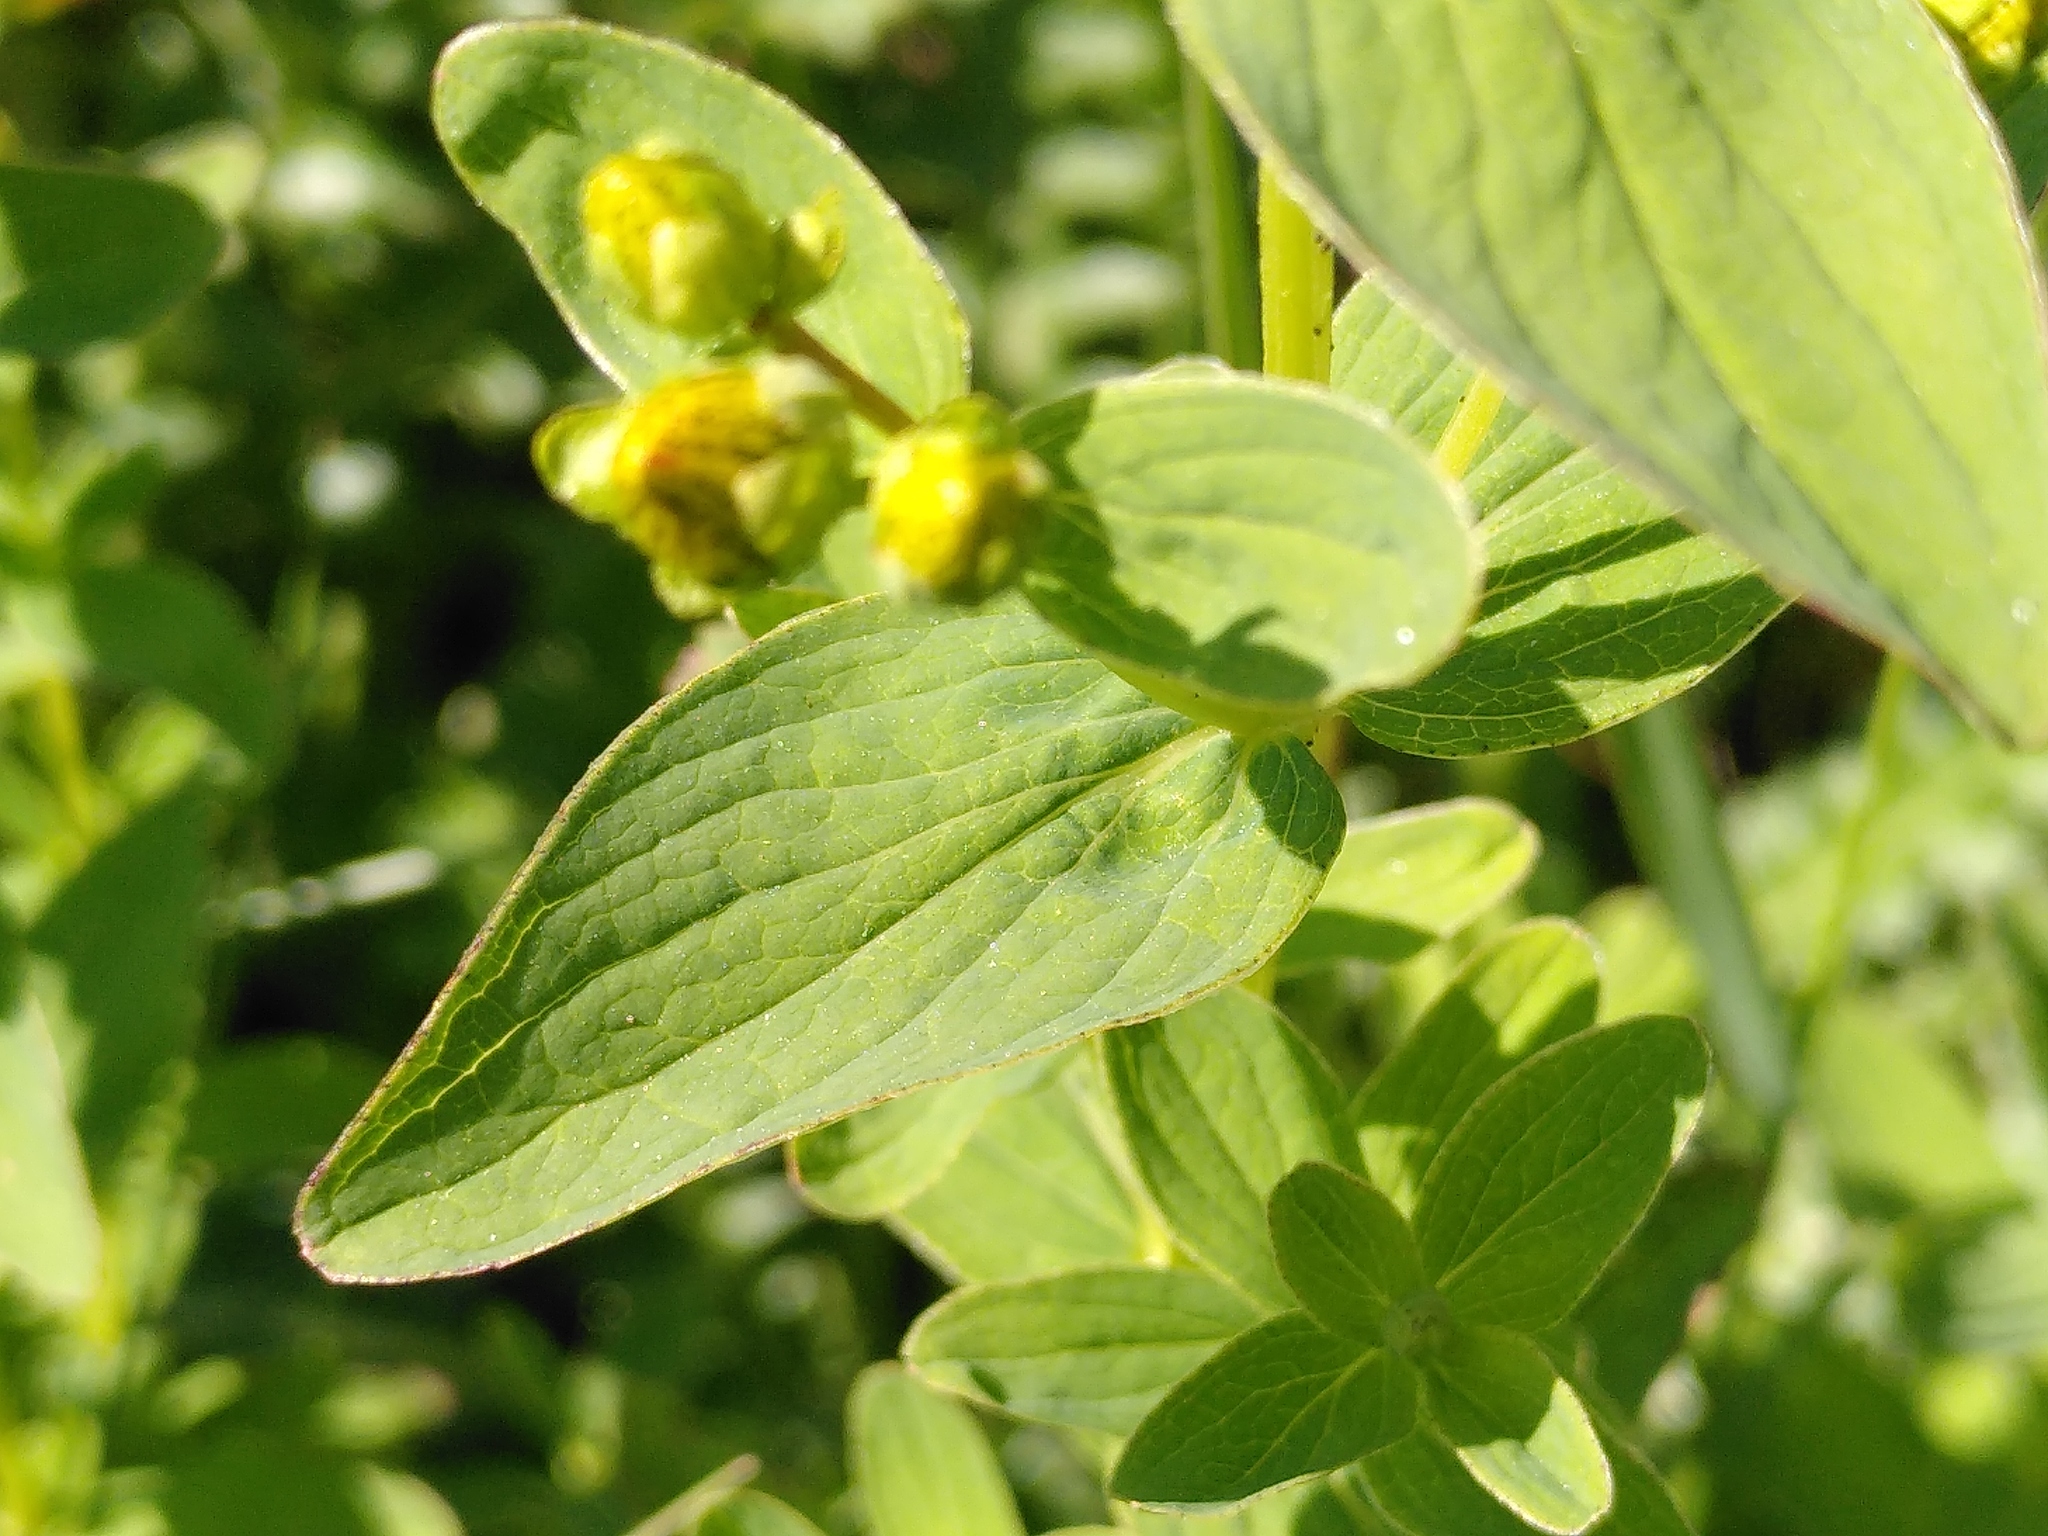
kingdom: Plantae
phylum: Tracheophyta
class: Magnoliopsida
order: Malpighiales
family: Hypericaceae
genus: Hypericum
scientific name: Hypericum maculatum
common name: Imperforate st. john's-wort
